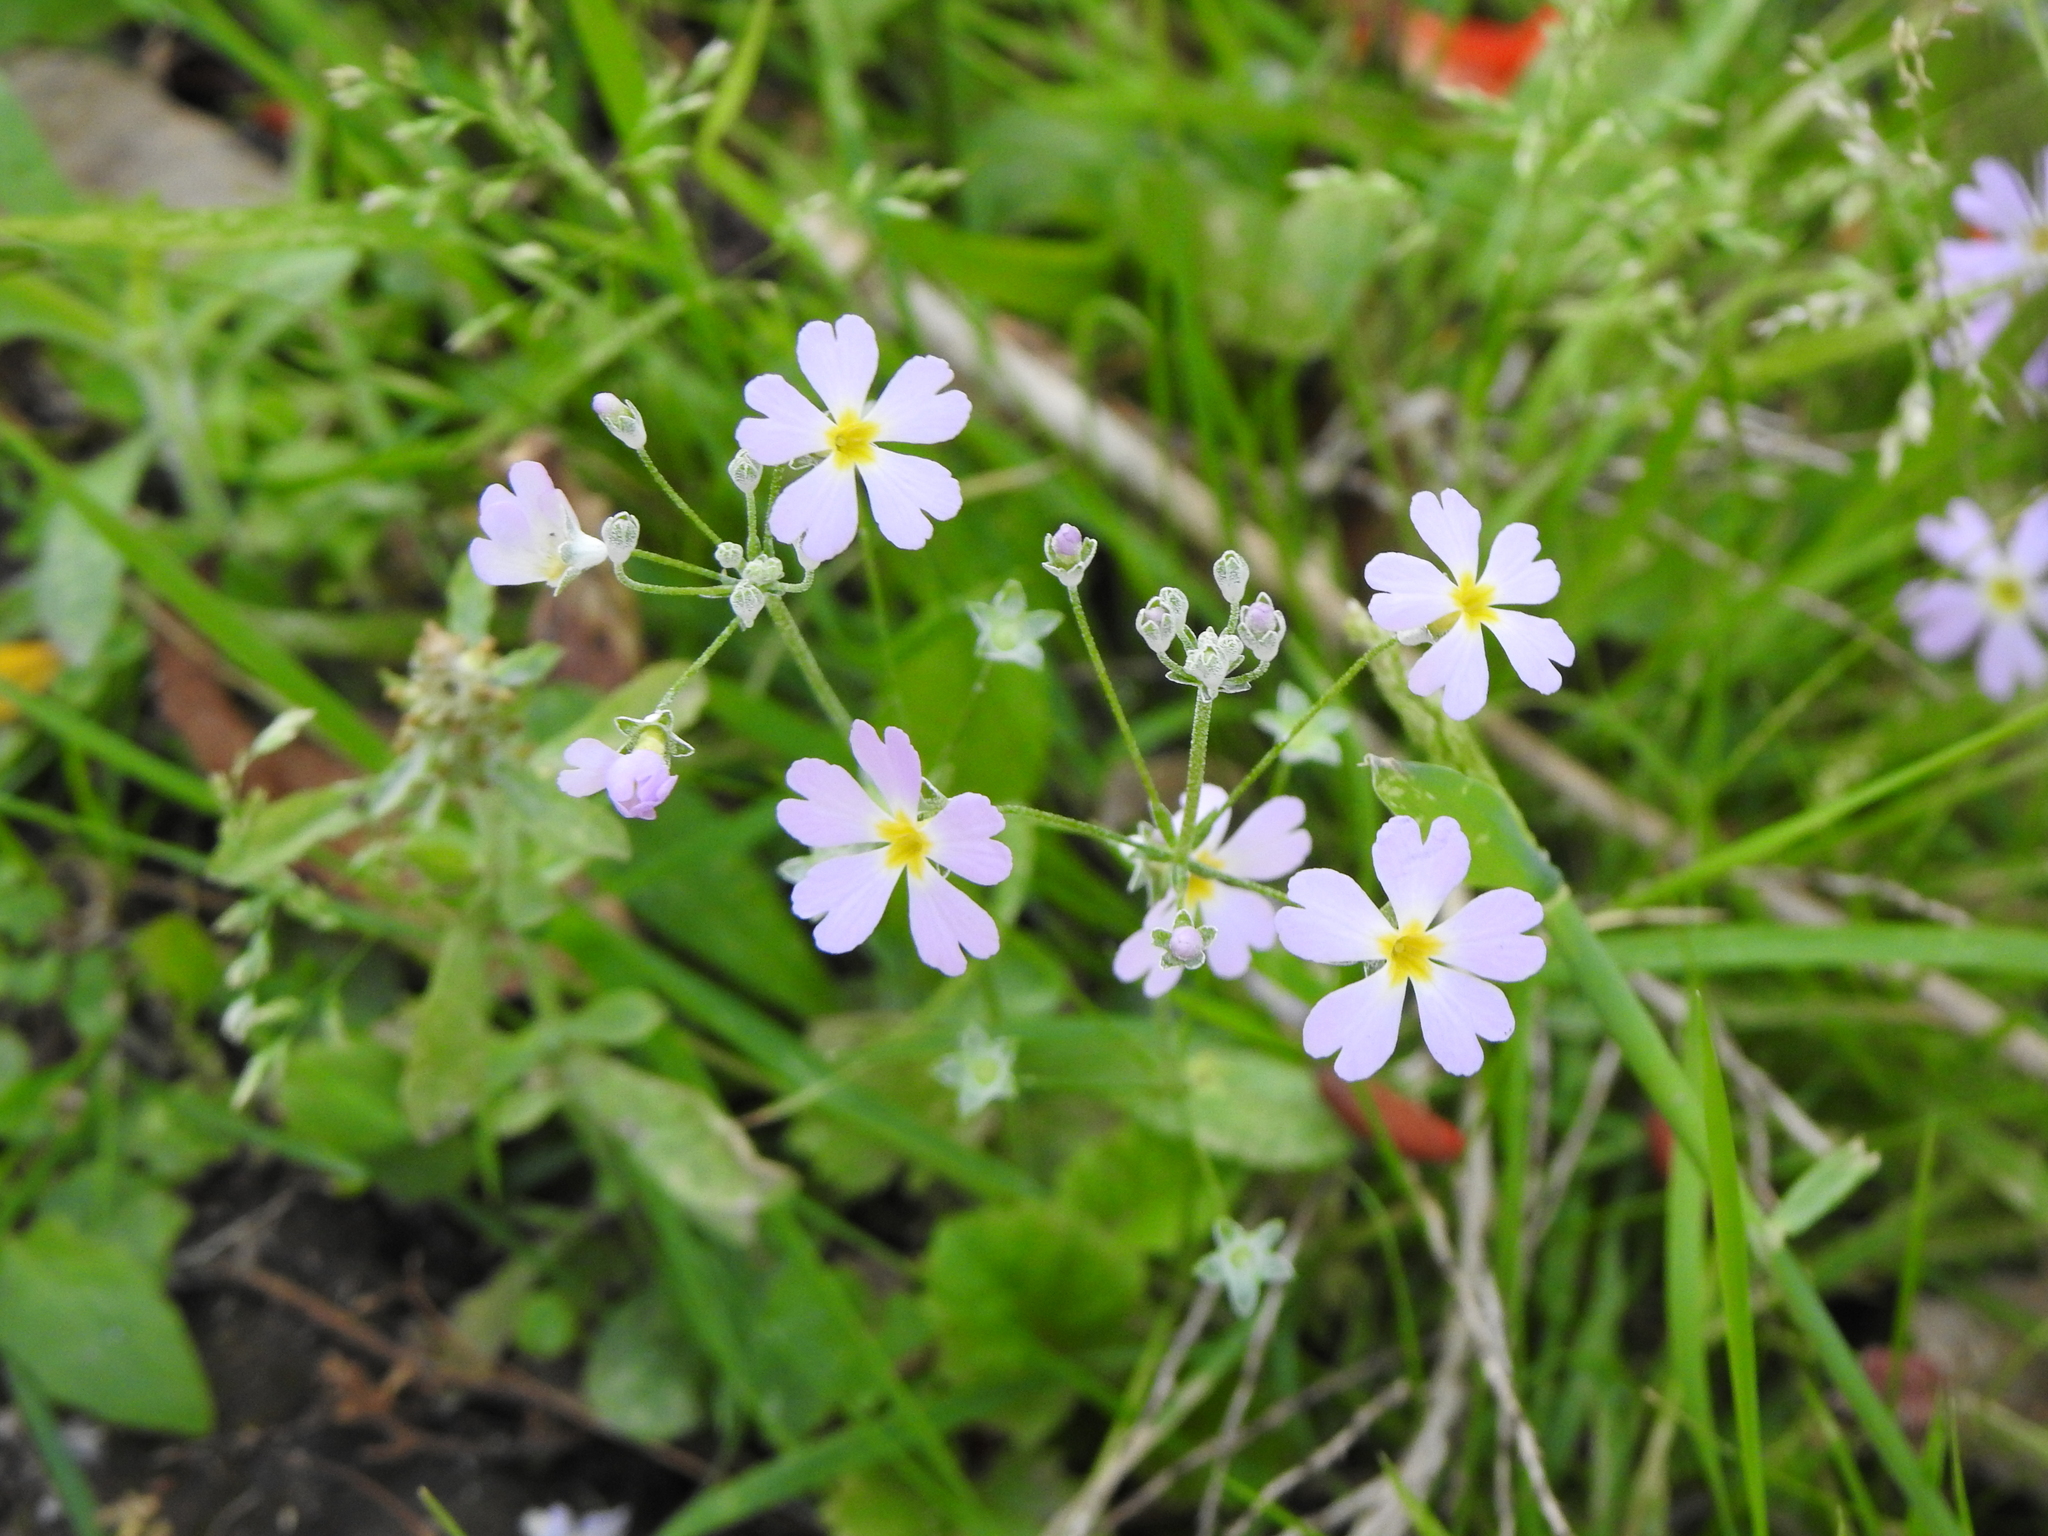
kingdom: Plantae
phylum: Tracheophyta
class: Magnoliopsida
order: Ericales
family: Primulaceae
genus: Primula
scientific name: Primula malacoides
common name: Baby primrose
